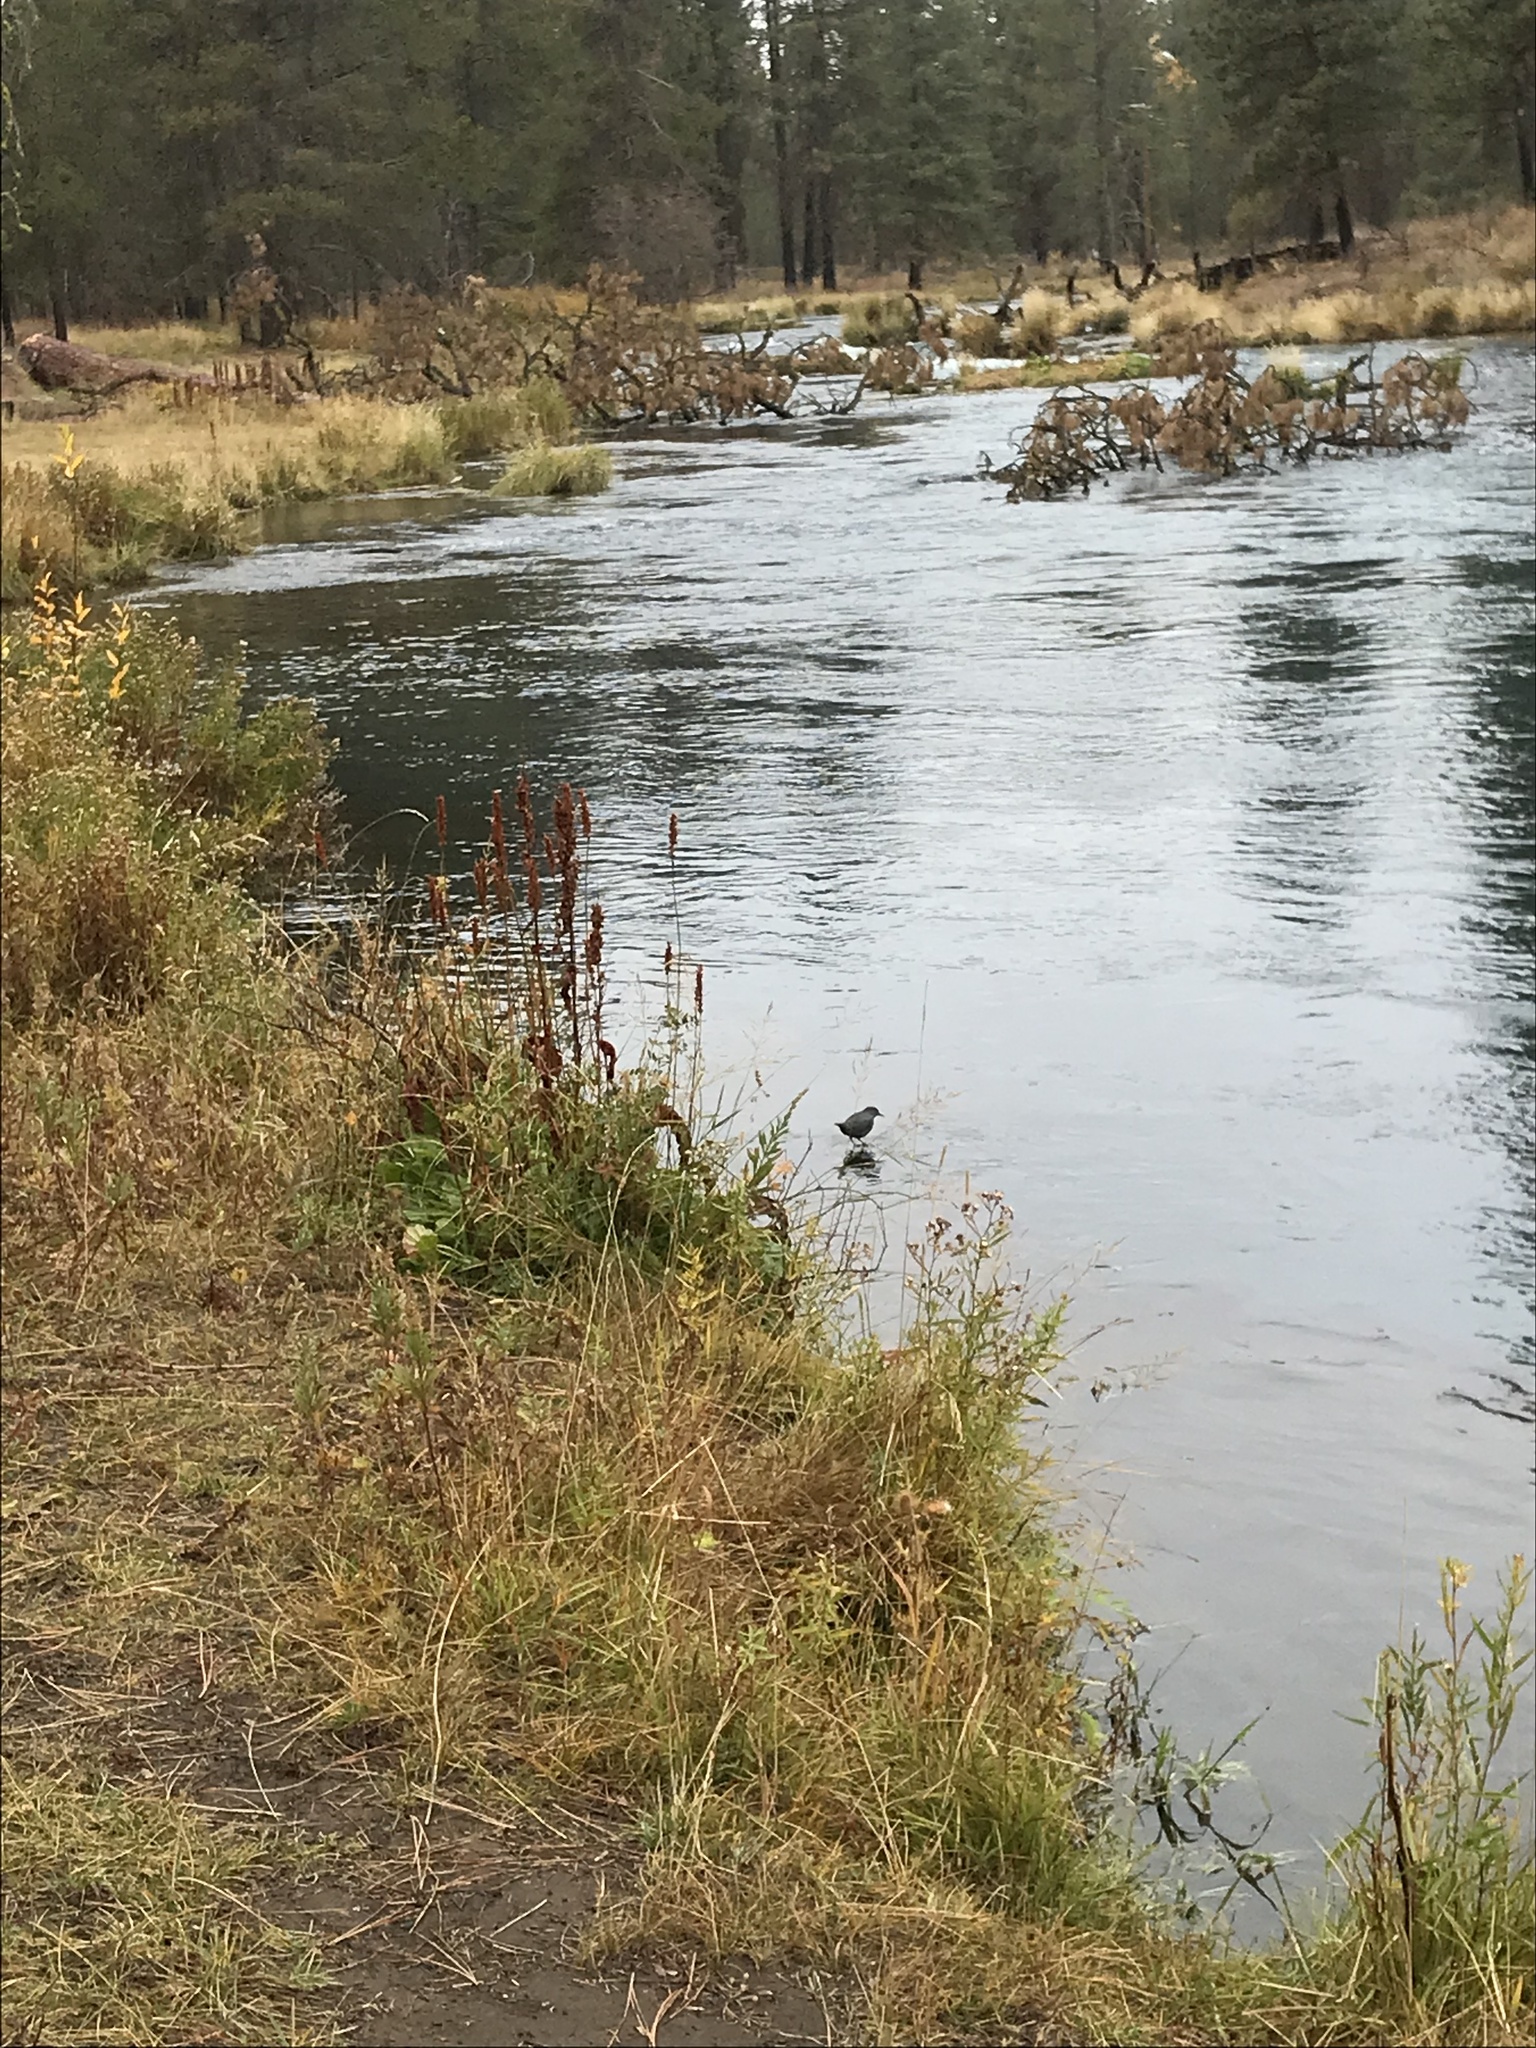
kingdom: Animalia
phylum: Chordata
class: Aves
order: Passeriformes
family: Cinclidae
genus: Cinclus
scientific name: Cinclus mexicanus
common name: American dipper
